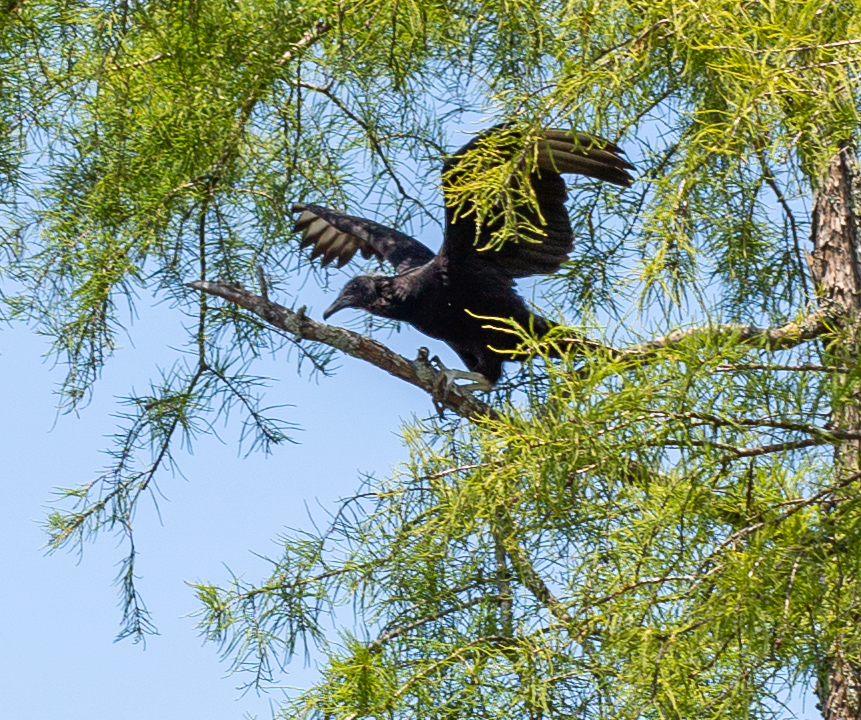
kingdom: Animalia
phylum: Chordata
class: Aves
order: Accipitriformes
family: Cathartidae
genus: Coragyps
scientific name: Coragyps atratus
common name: Black vulture
